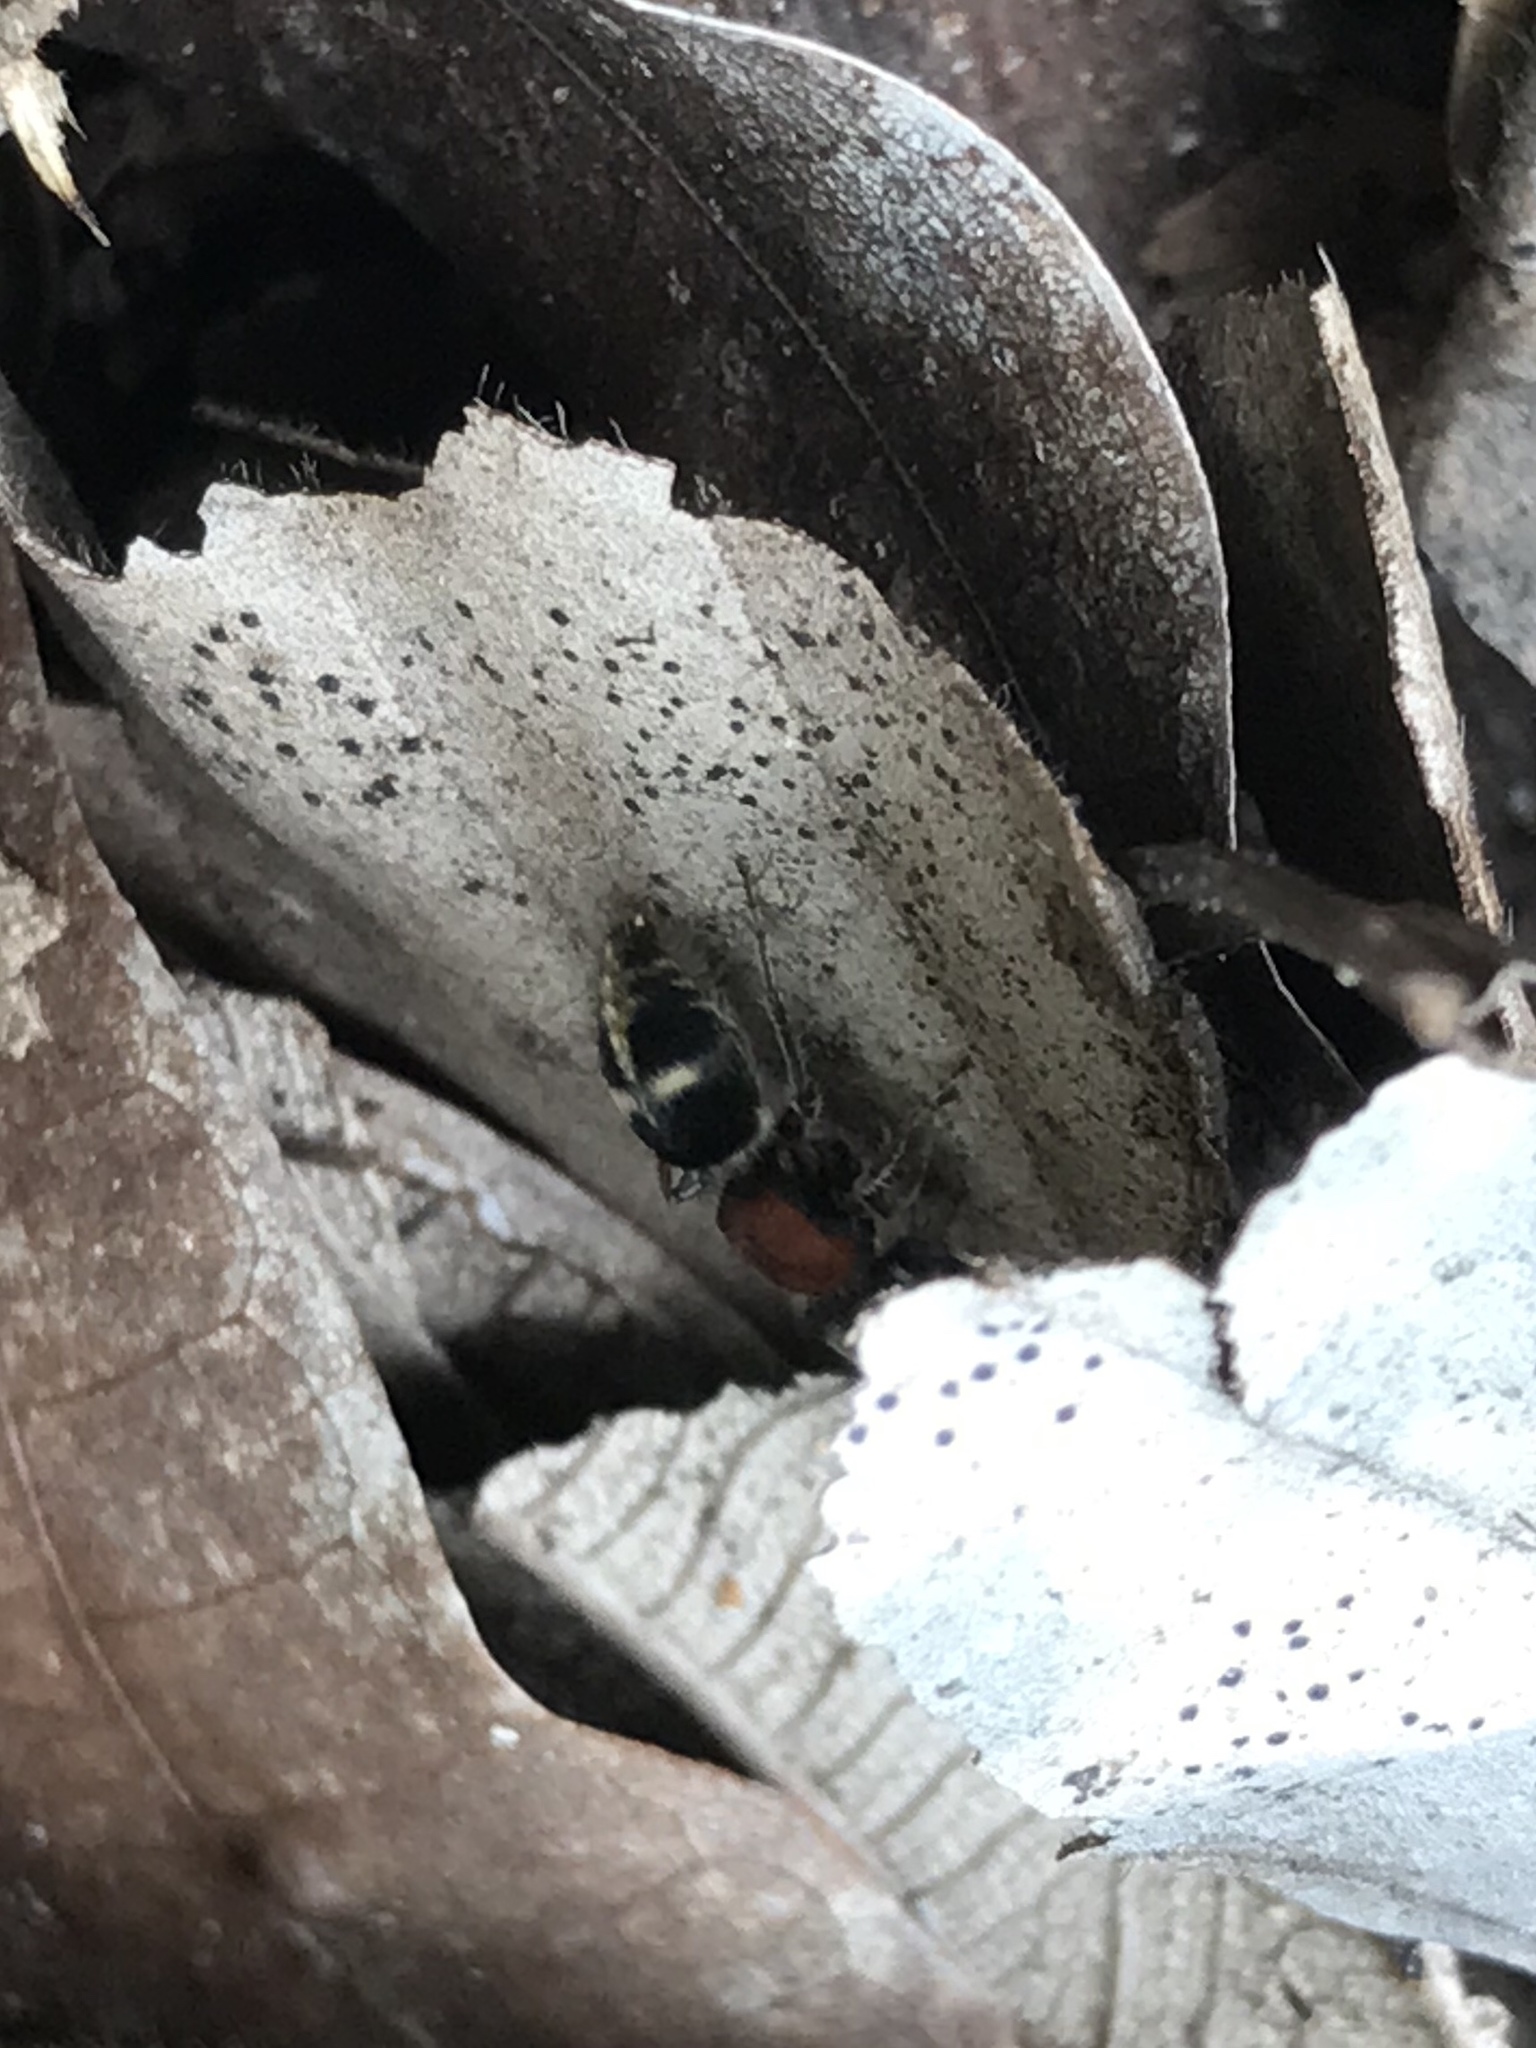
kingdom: Animalia
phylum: Arthropoda
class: Insecta
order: Hymenoptera
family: Mutillidae
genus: Horcomutilla
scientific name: Horcomutilla
